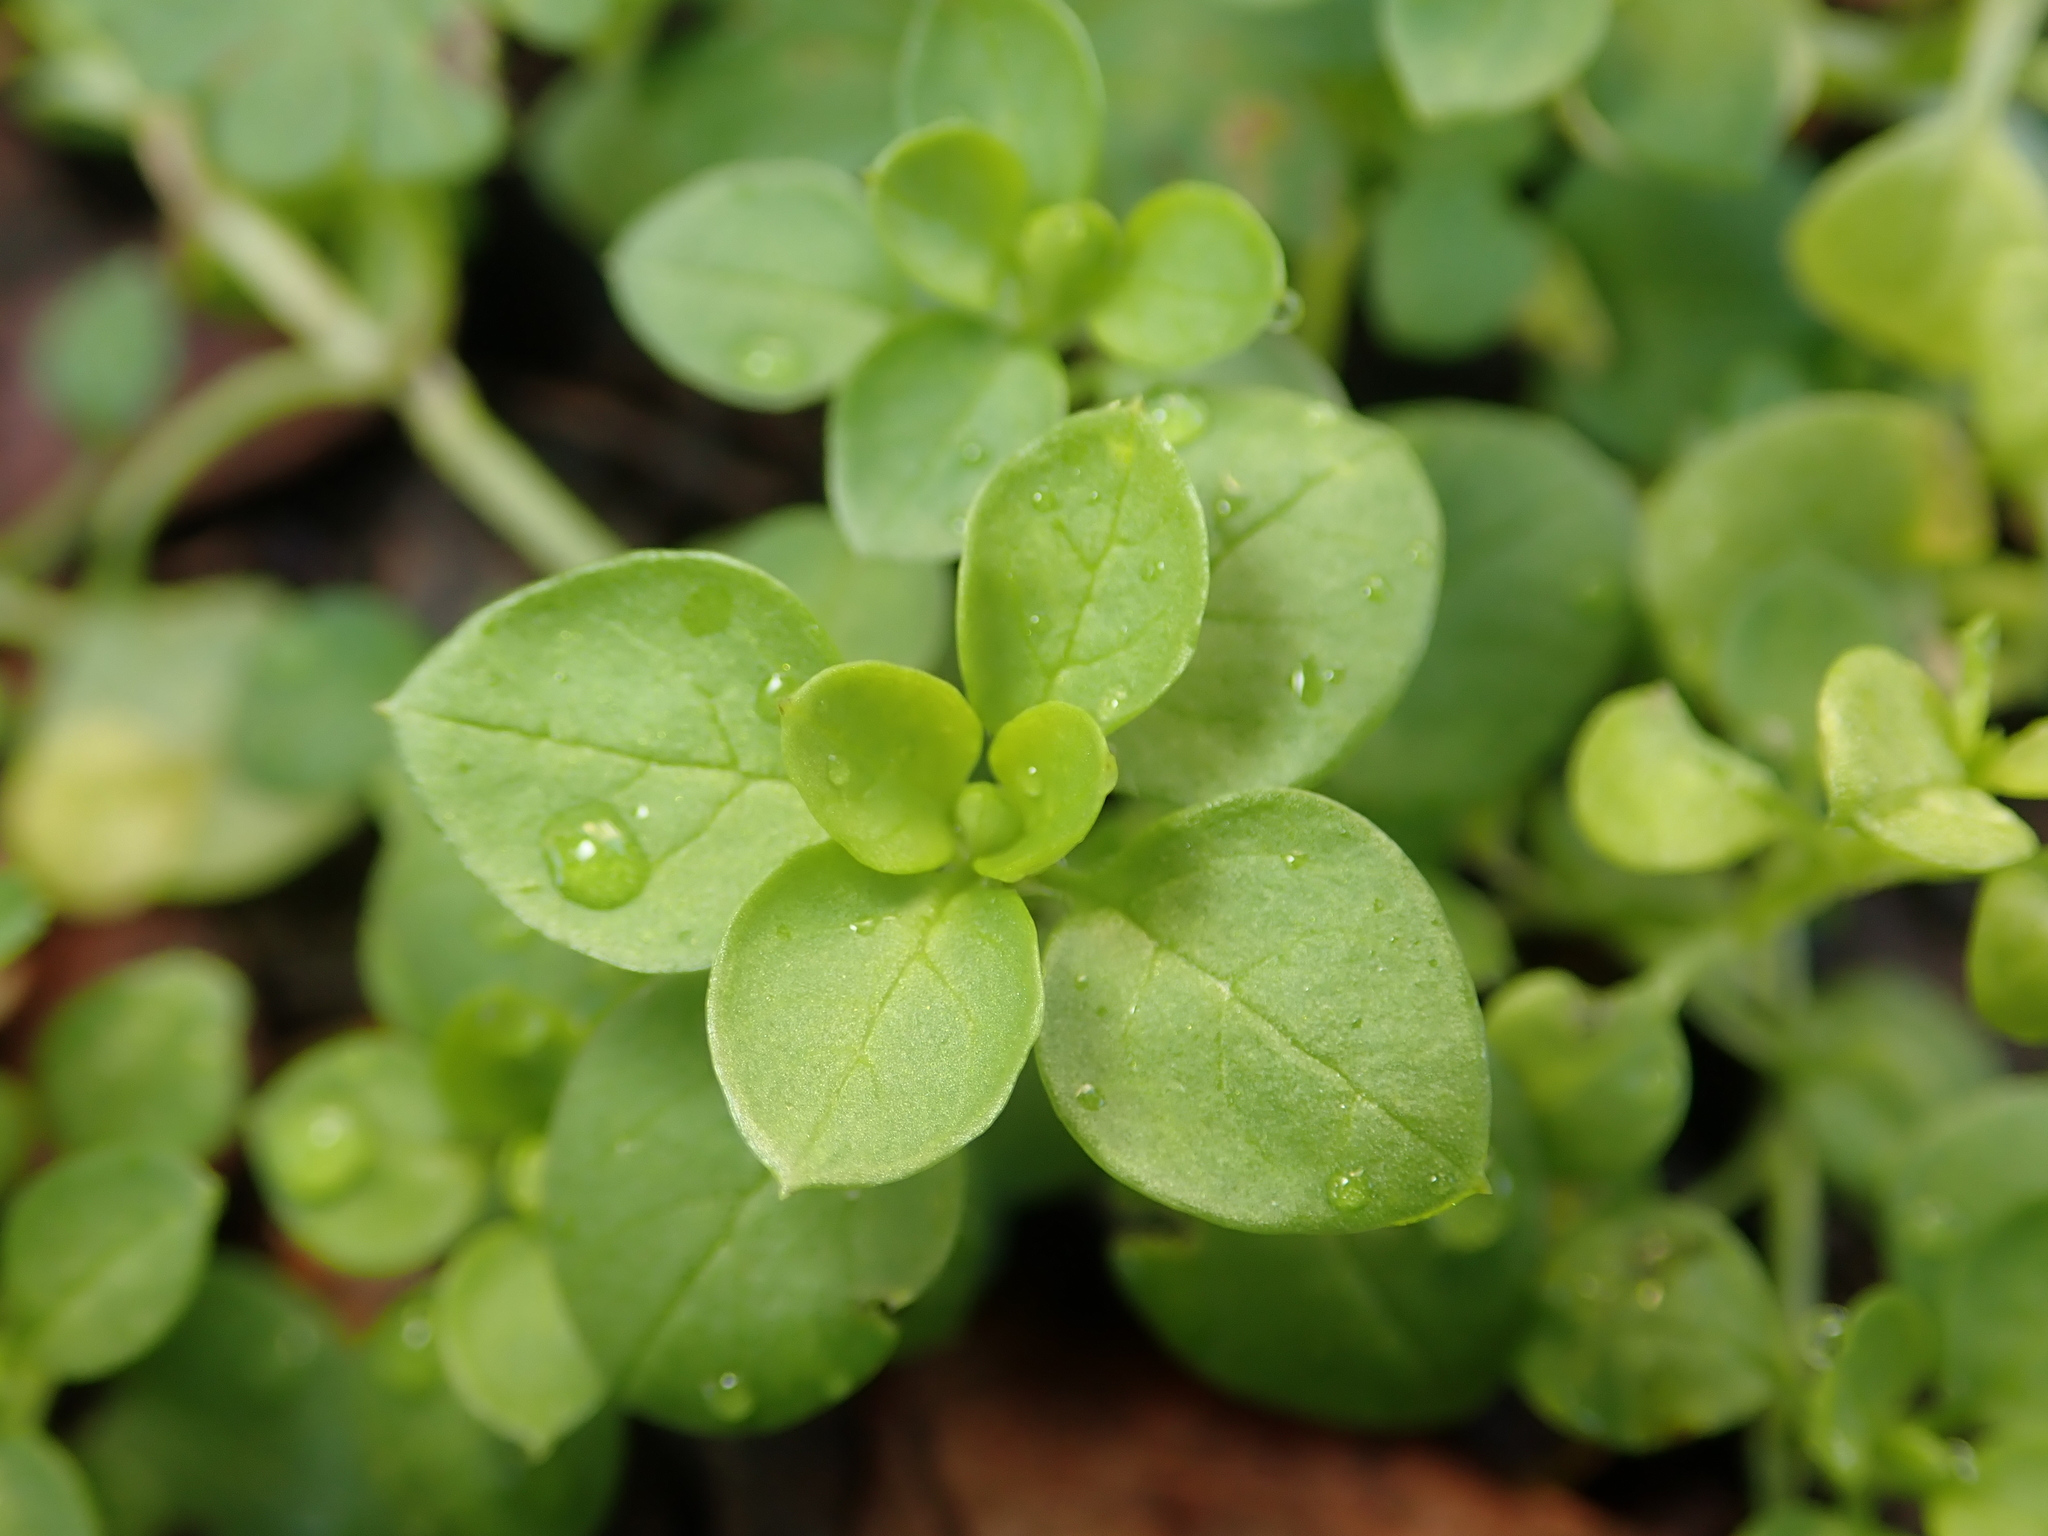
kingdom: Plantae
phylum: Tracheophyta
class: Magnoliopsida
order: Caryophyllales
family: Caryophyllaceae
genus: Stellaria
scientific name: Stellaria media
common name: Common chickweed
